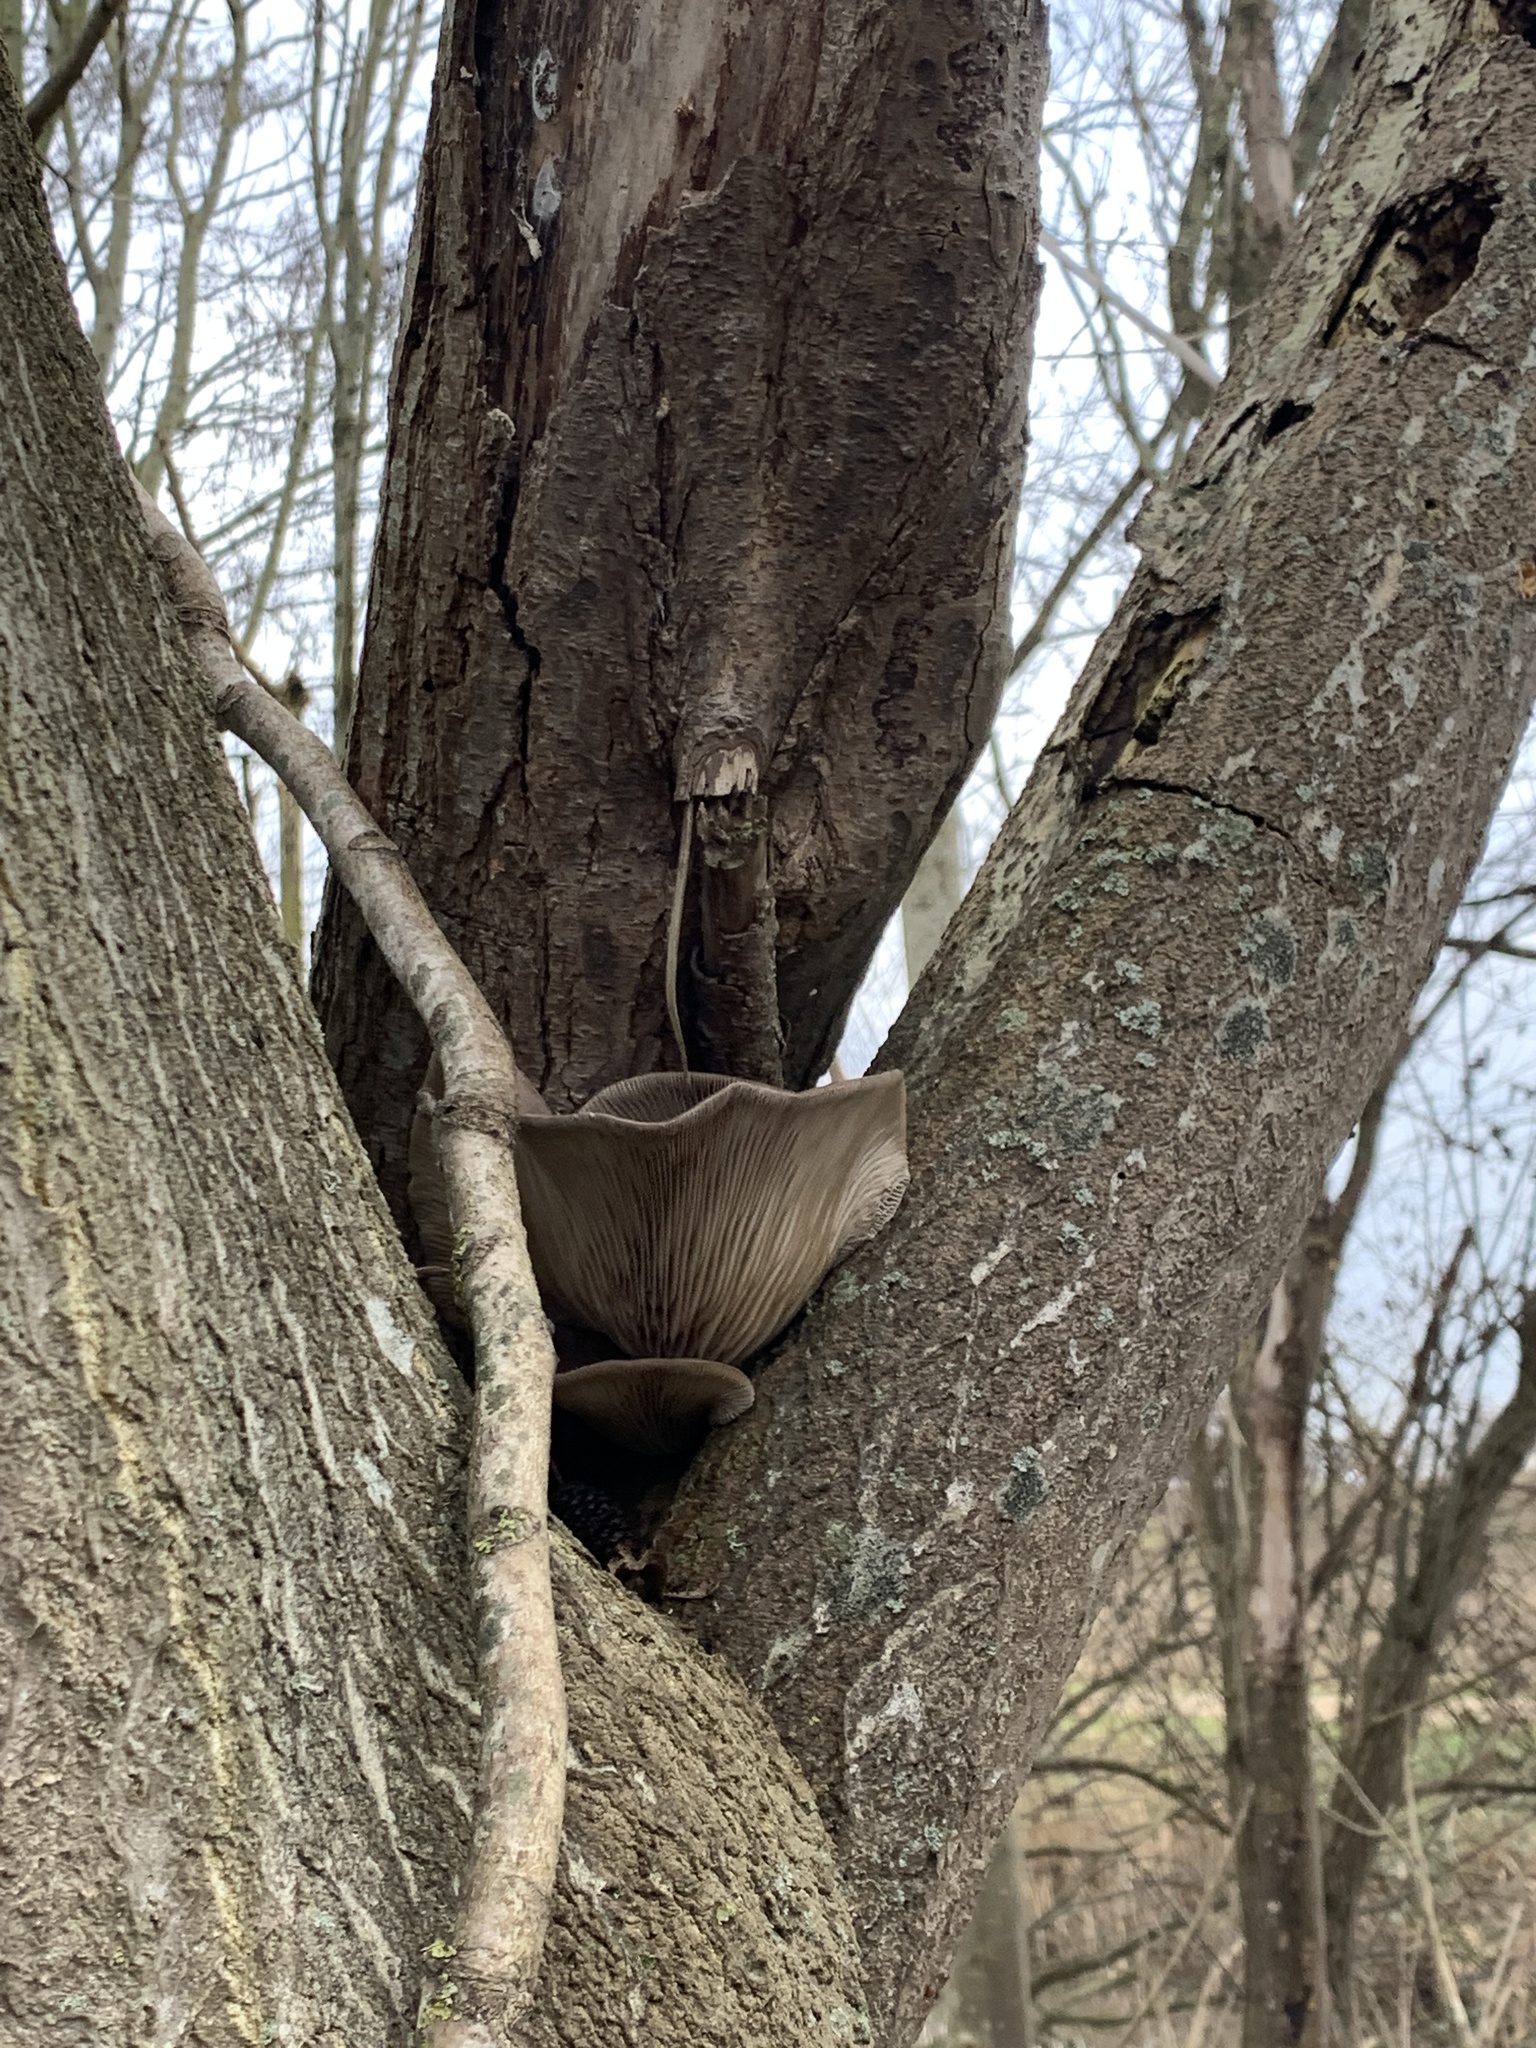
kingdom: Fungi
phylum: Basidiomycota
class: Agaricomycetes
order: Agaricales
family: Pleurotaceae
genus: Pleurotus
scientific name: Pleurotus ostreatus
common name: Oyster mushroom
